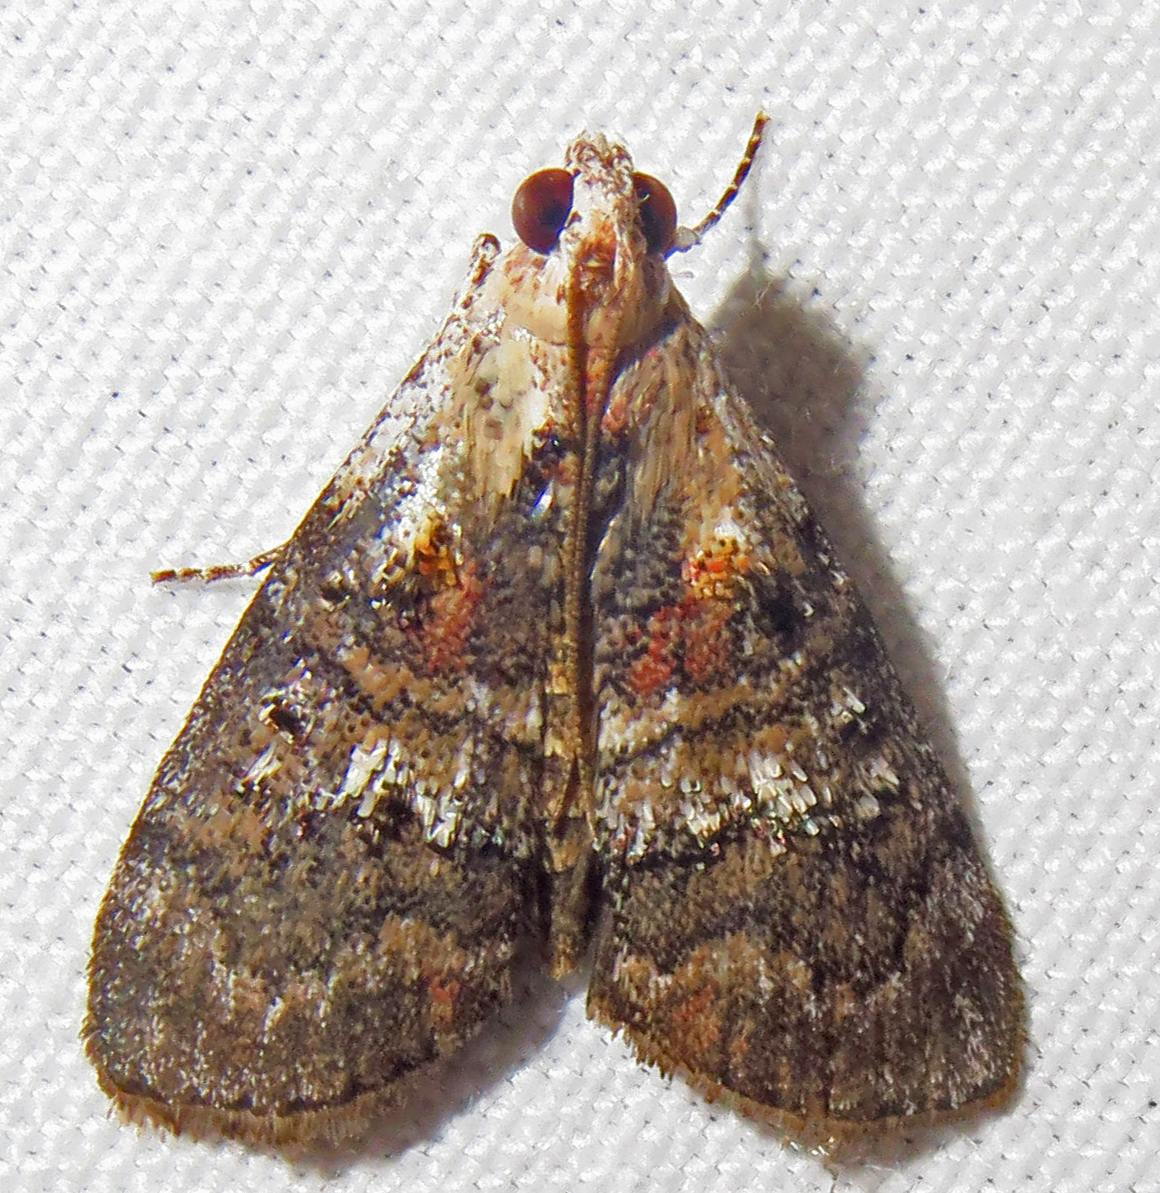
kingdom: Animalia
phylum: Arthropoda
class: Insecta
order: Lepidoptera
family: Pyralidae
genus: Pococera
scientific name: Pococera expandens
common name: Striped oak webworm moth
